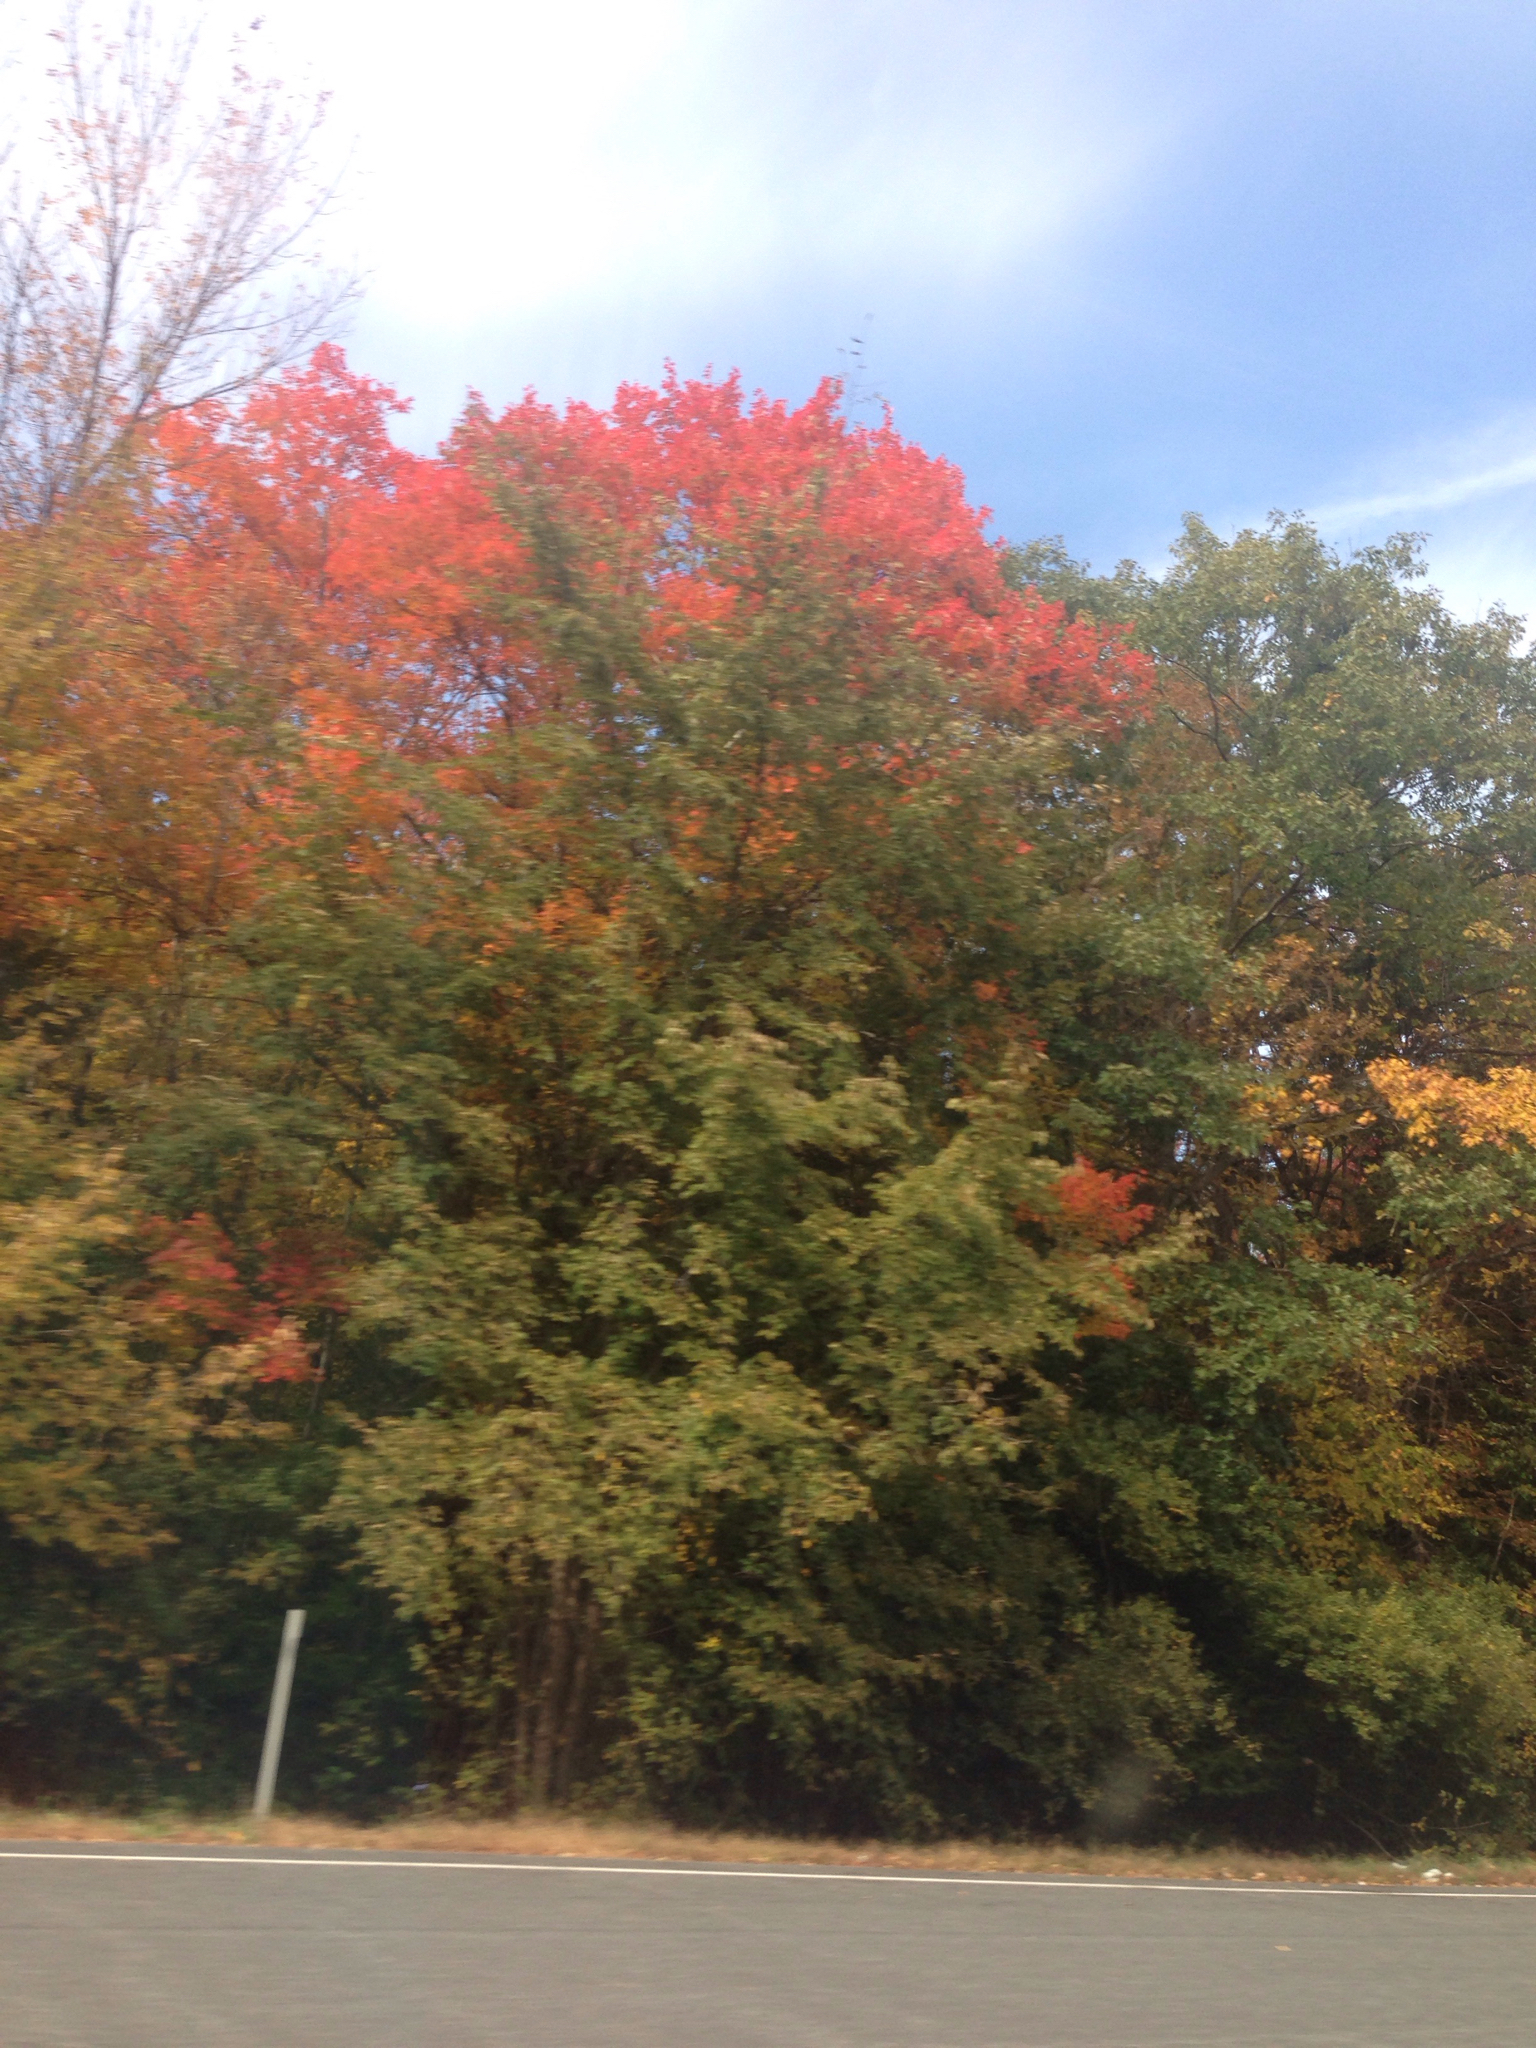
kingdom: Plantae
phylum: Tracheophyta
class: Magnoliopsida
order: Sapindales
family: Sapindaceae
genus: Acer
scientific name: Acer rubrum
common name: Red maple
